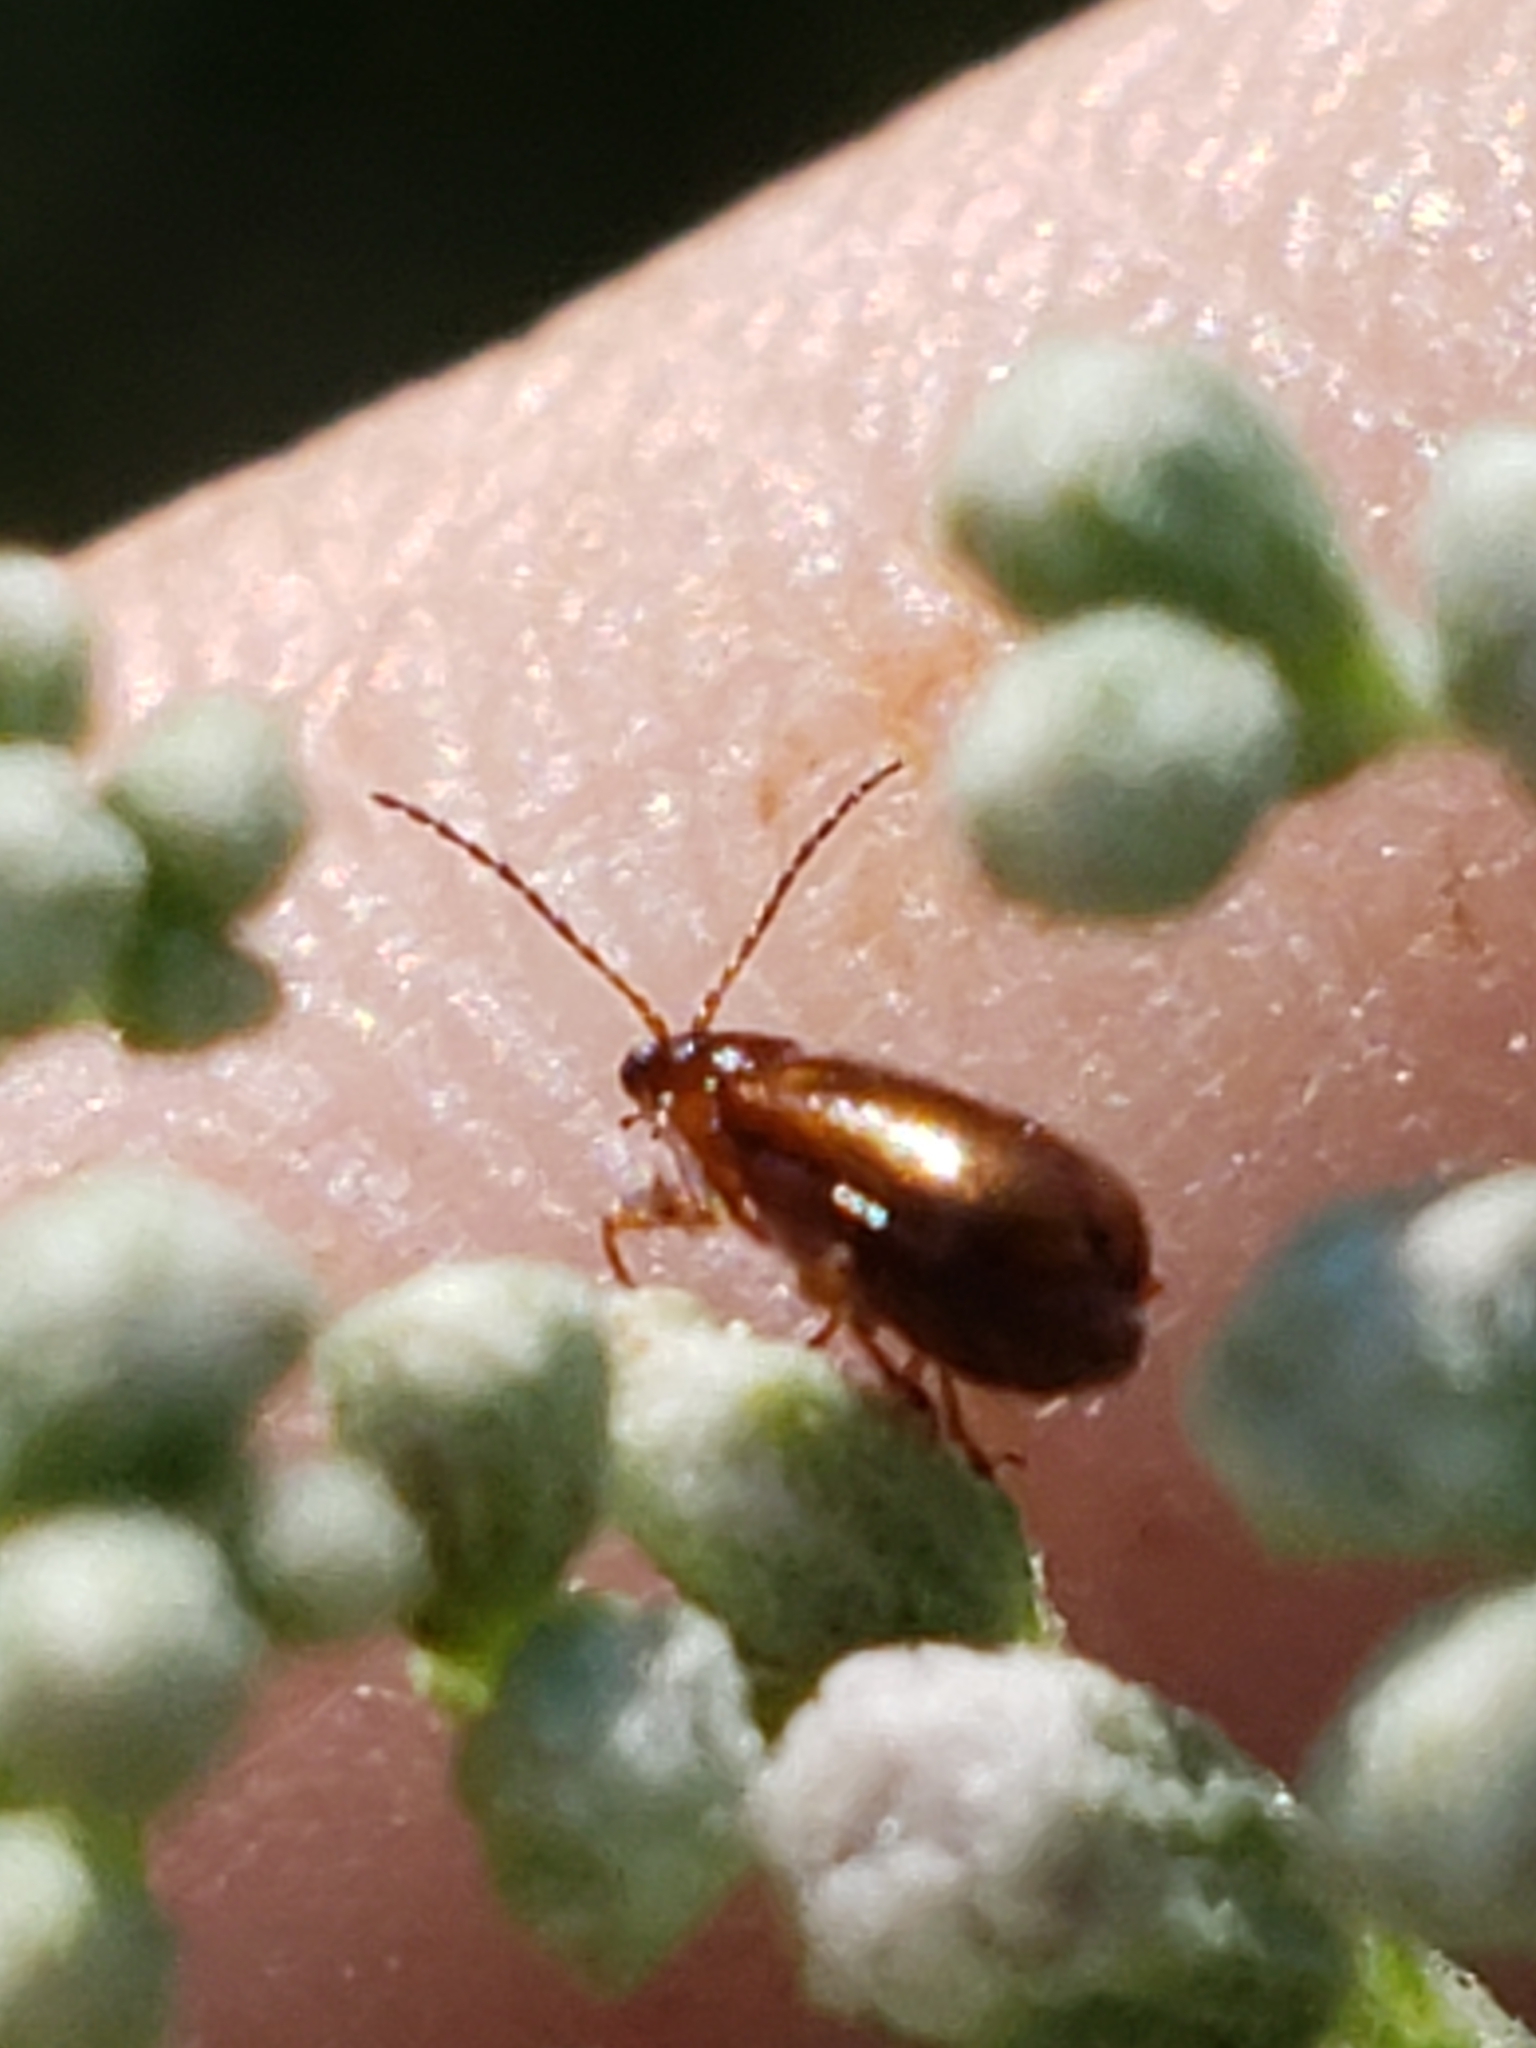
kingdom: Animalia
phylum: Arthropoda
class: Insecta
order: Coleoptera
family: Chrysomelidae
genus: Luperaltica
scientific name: Luperaltica nigripalpis
